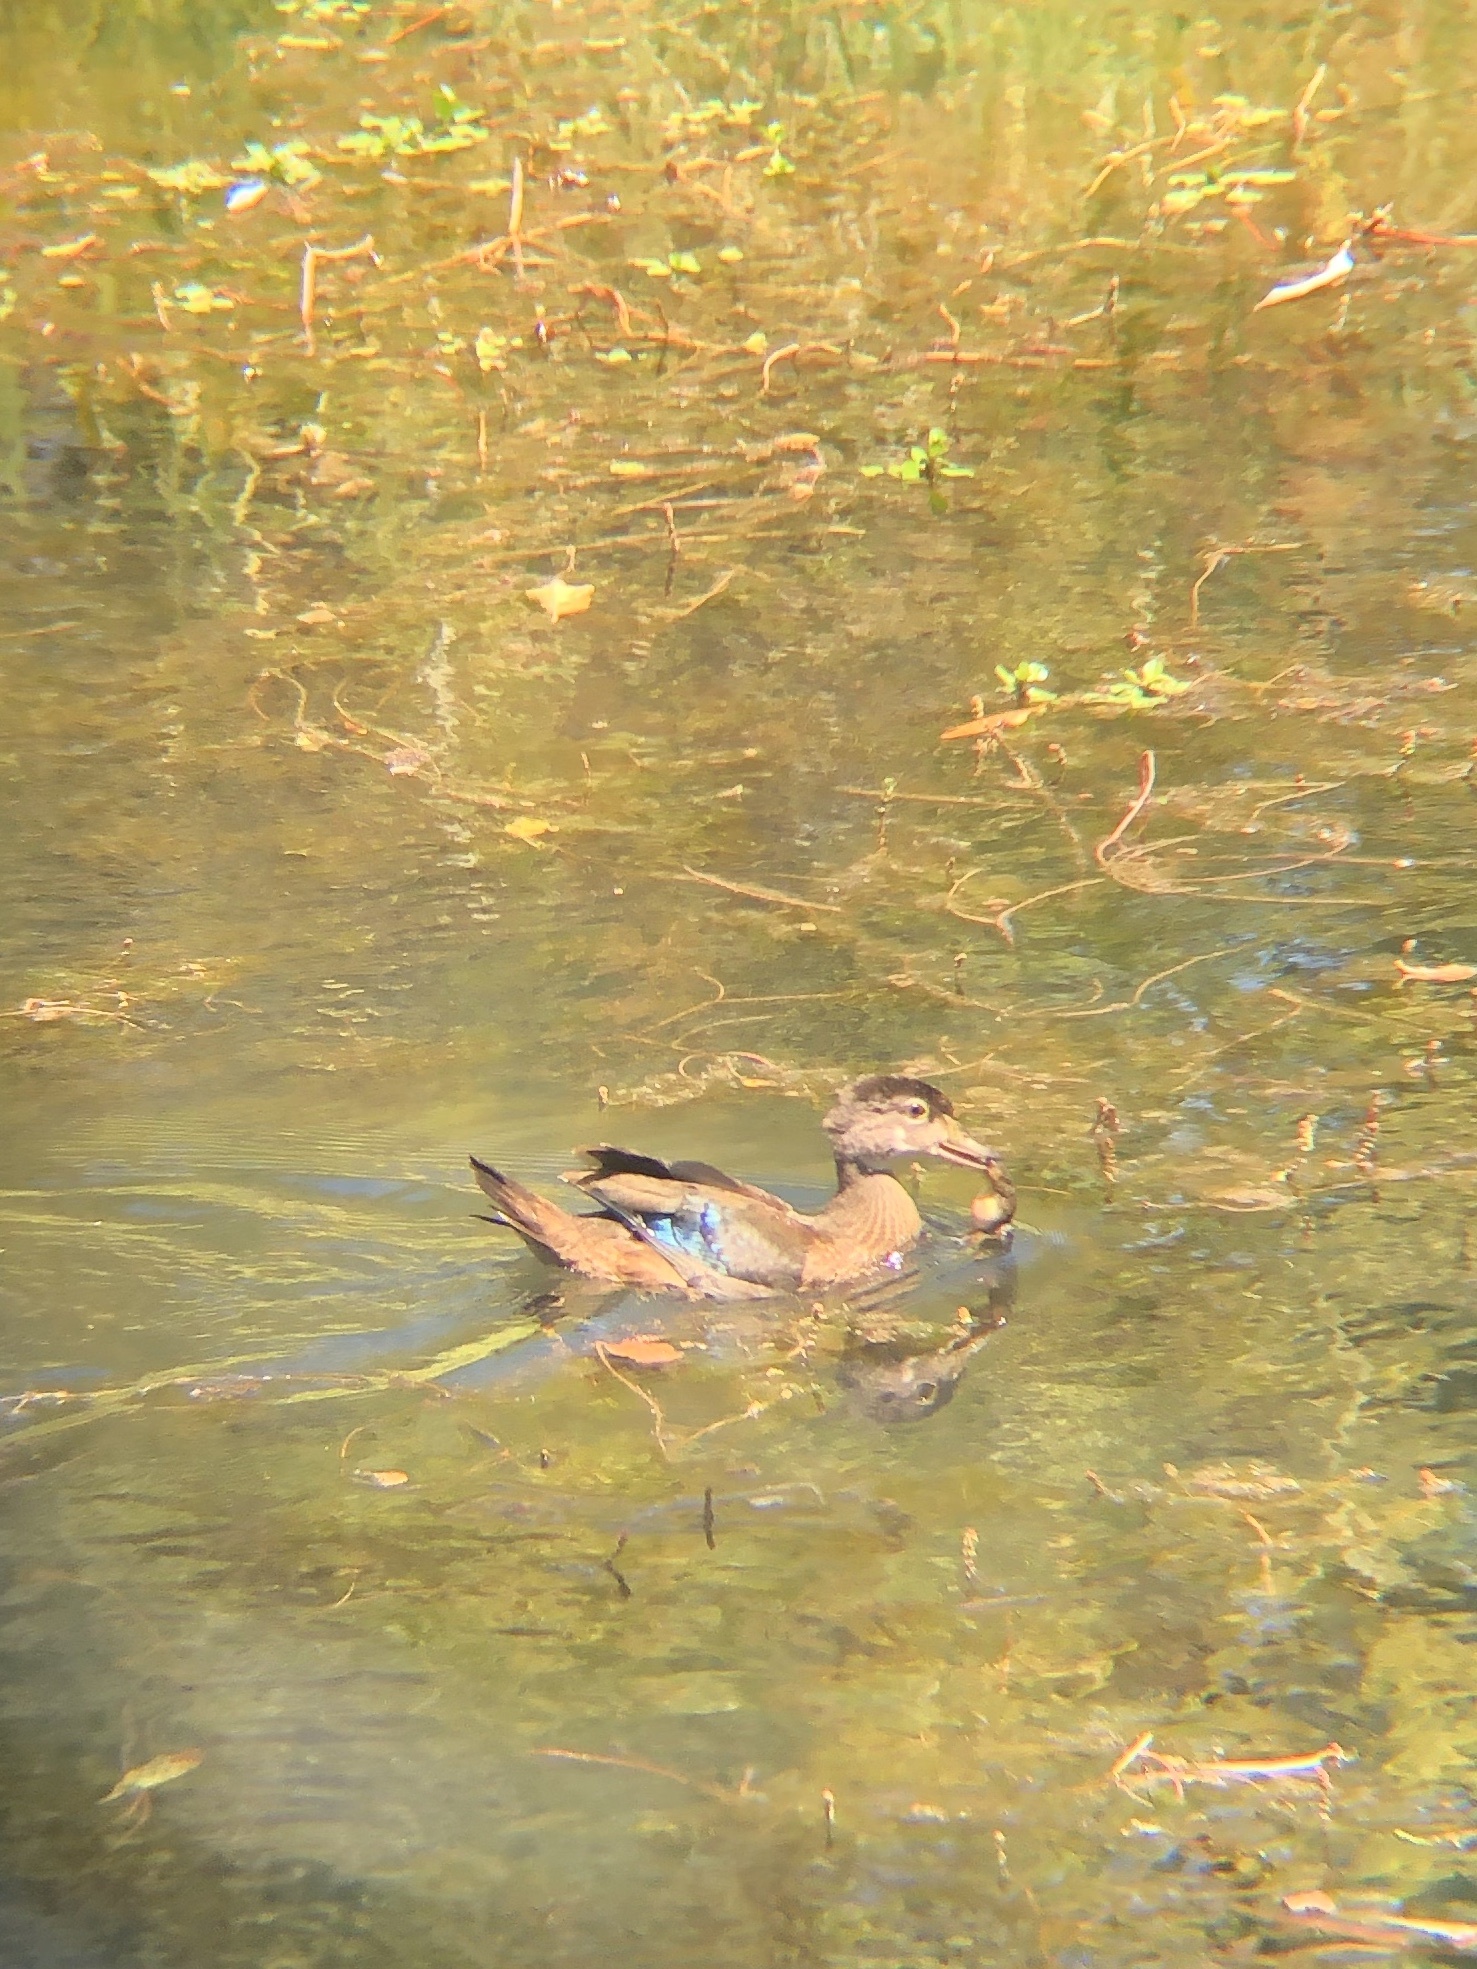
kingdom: Animalia
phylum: Chordata
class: Aves
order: Anseriformes
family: Anatidae
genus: Aix
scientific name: Aix sponsa
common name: Wood duck
